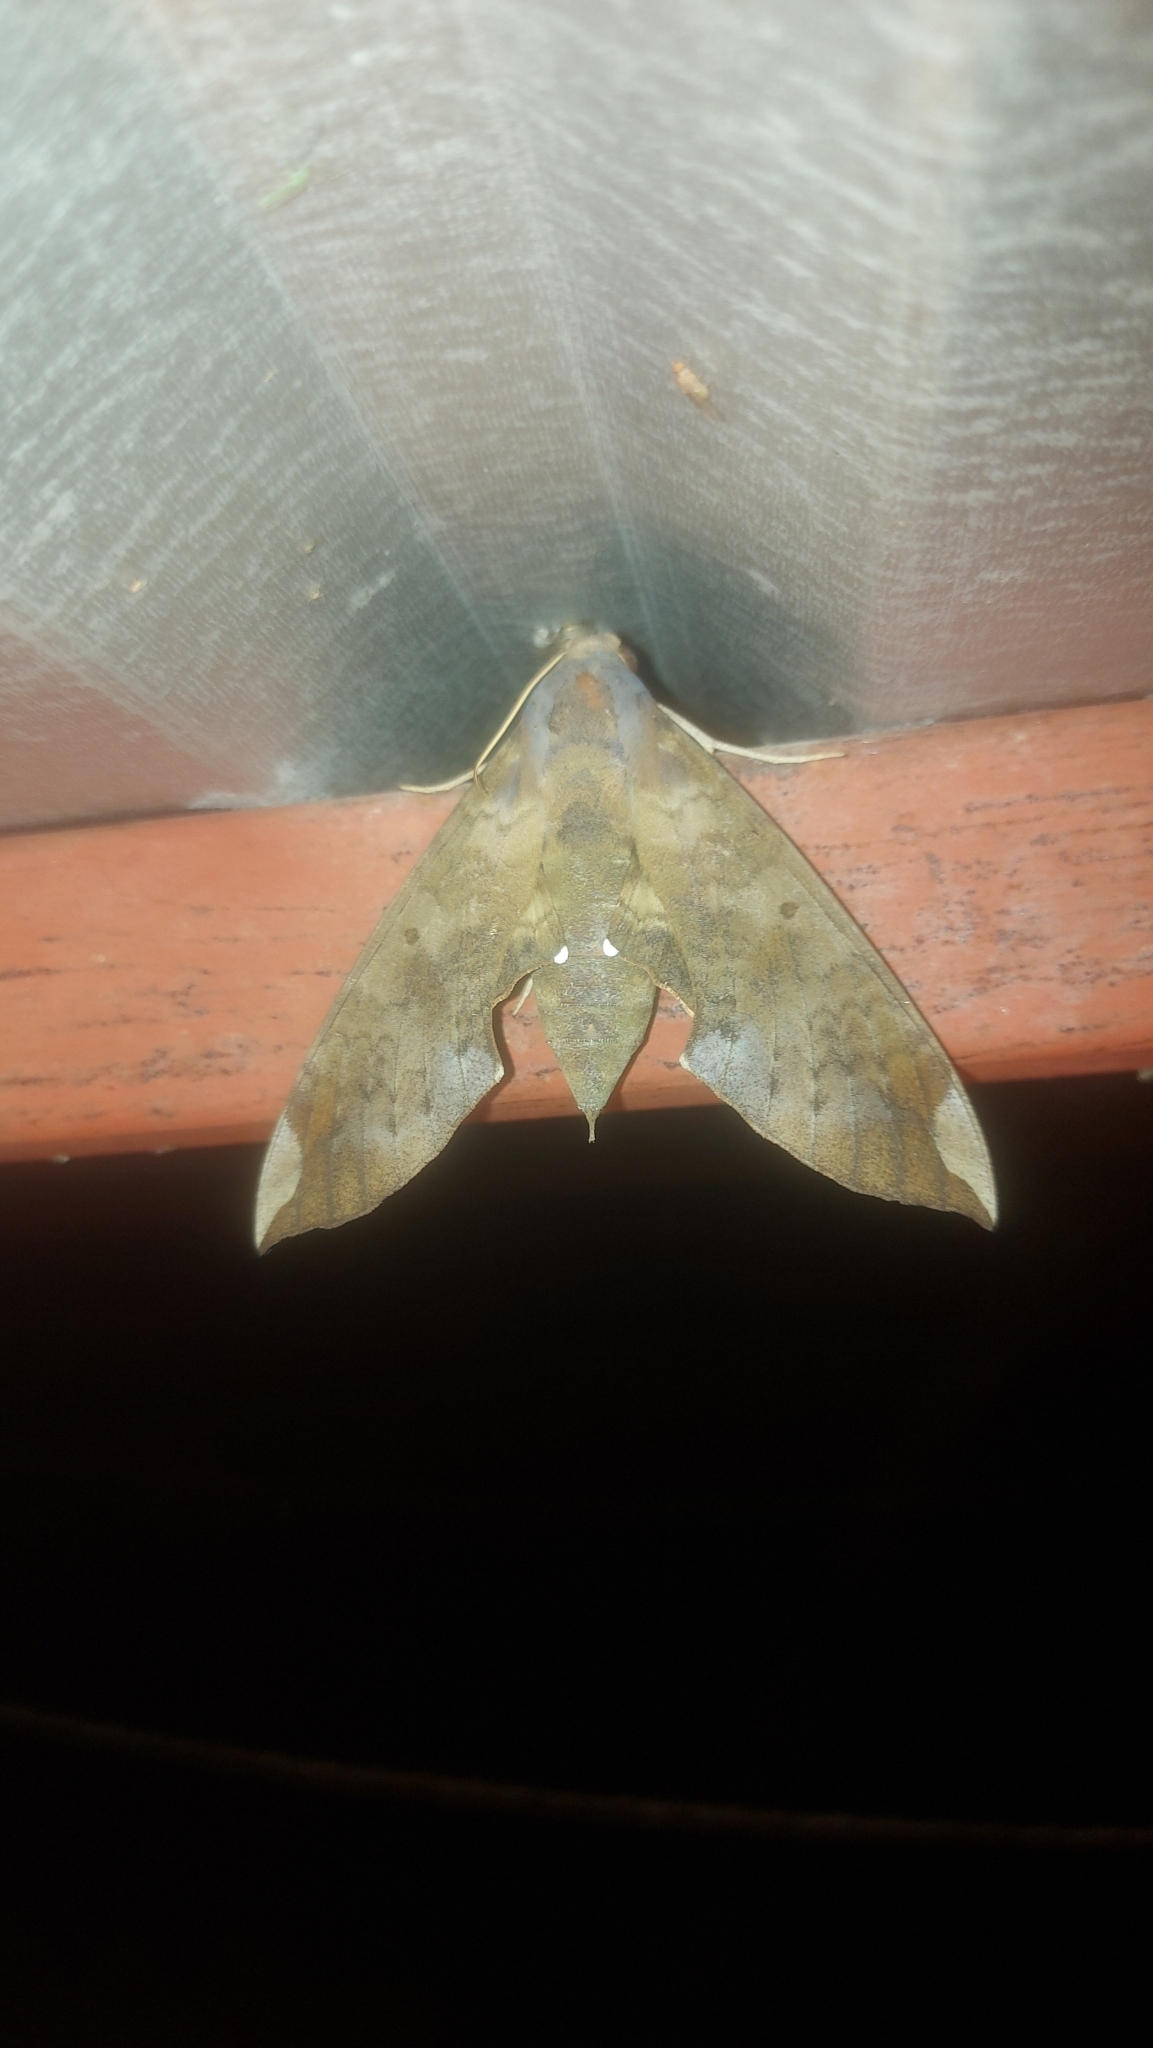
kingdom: Animalia
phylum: Arthropoda
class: Insecta
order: Lepidoptera
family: Sphingidae
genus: Pachylia
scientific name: Pachylia ficus
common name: Fig sphinx
